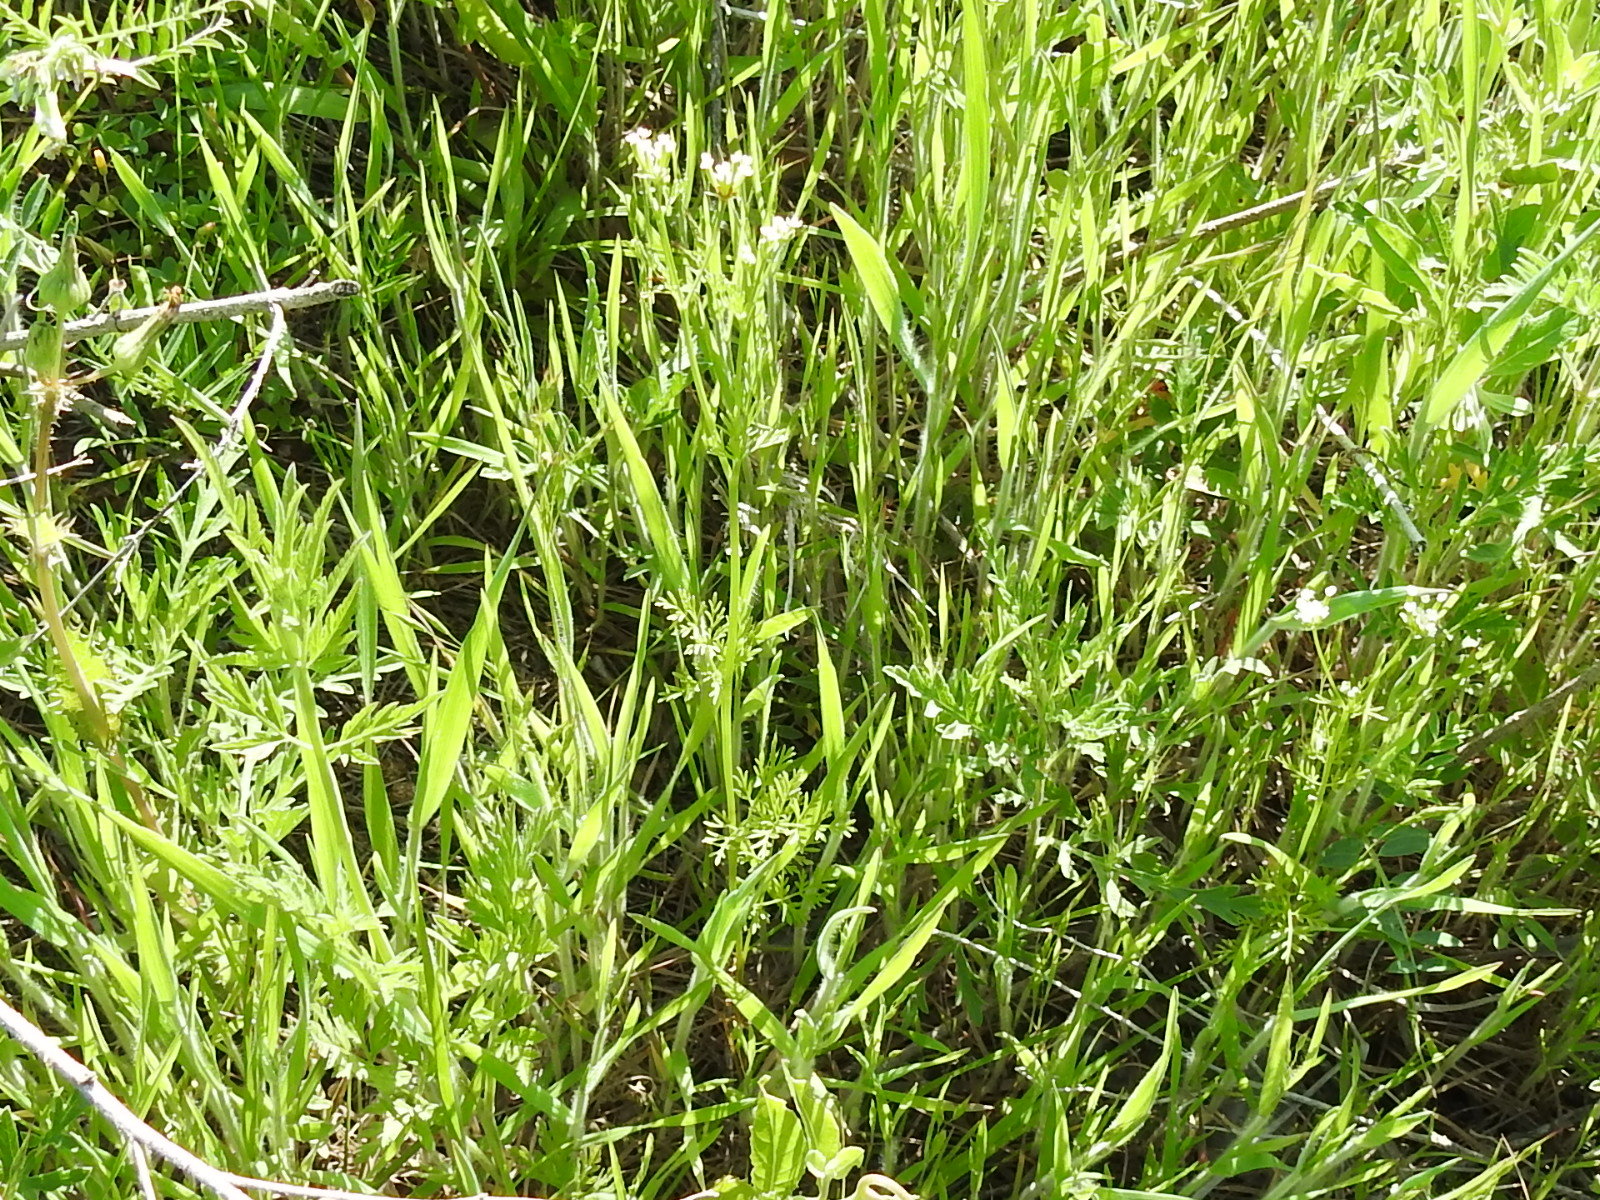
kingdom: Plantae
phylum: Tracheophyta
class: Magnoliopsida
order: Apiales
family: Apiaceae
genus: Chaerophyllum
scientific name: Chaerophyllum tainturieri
